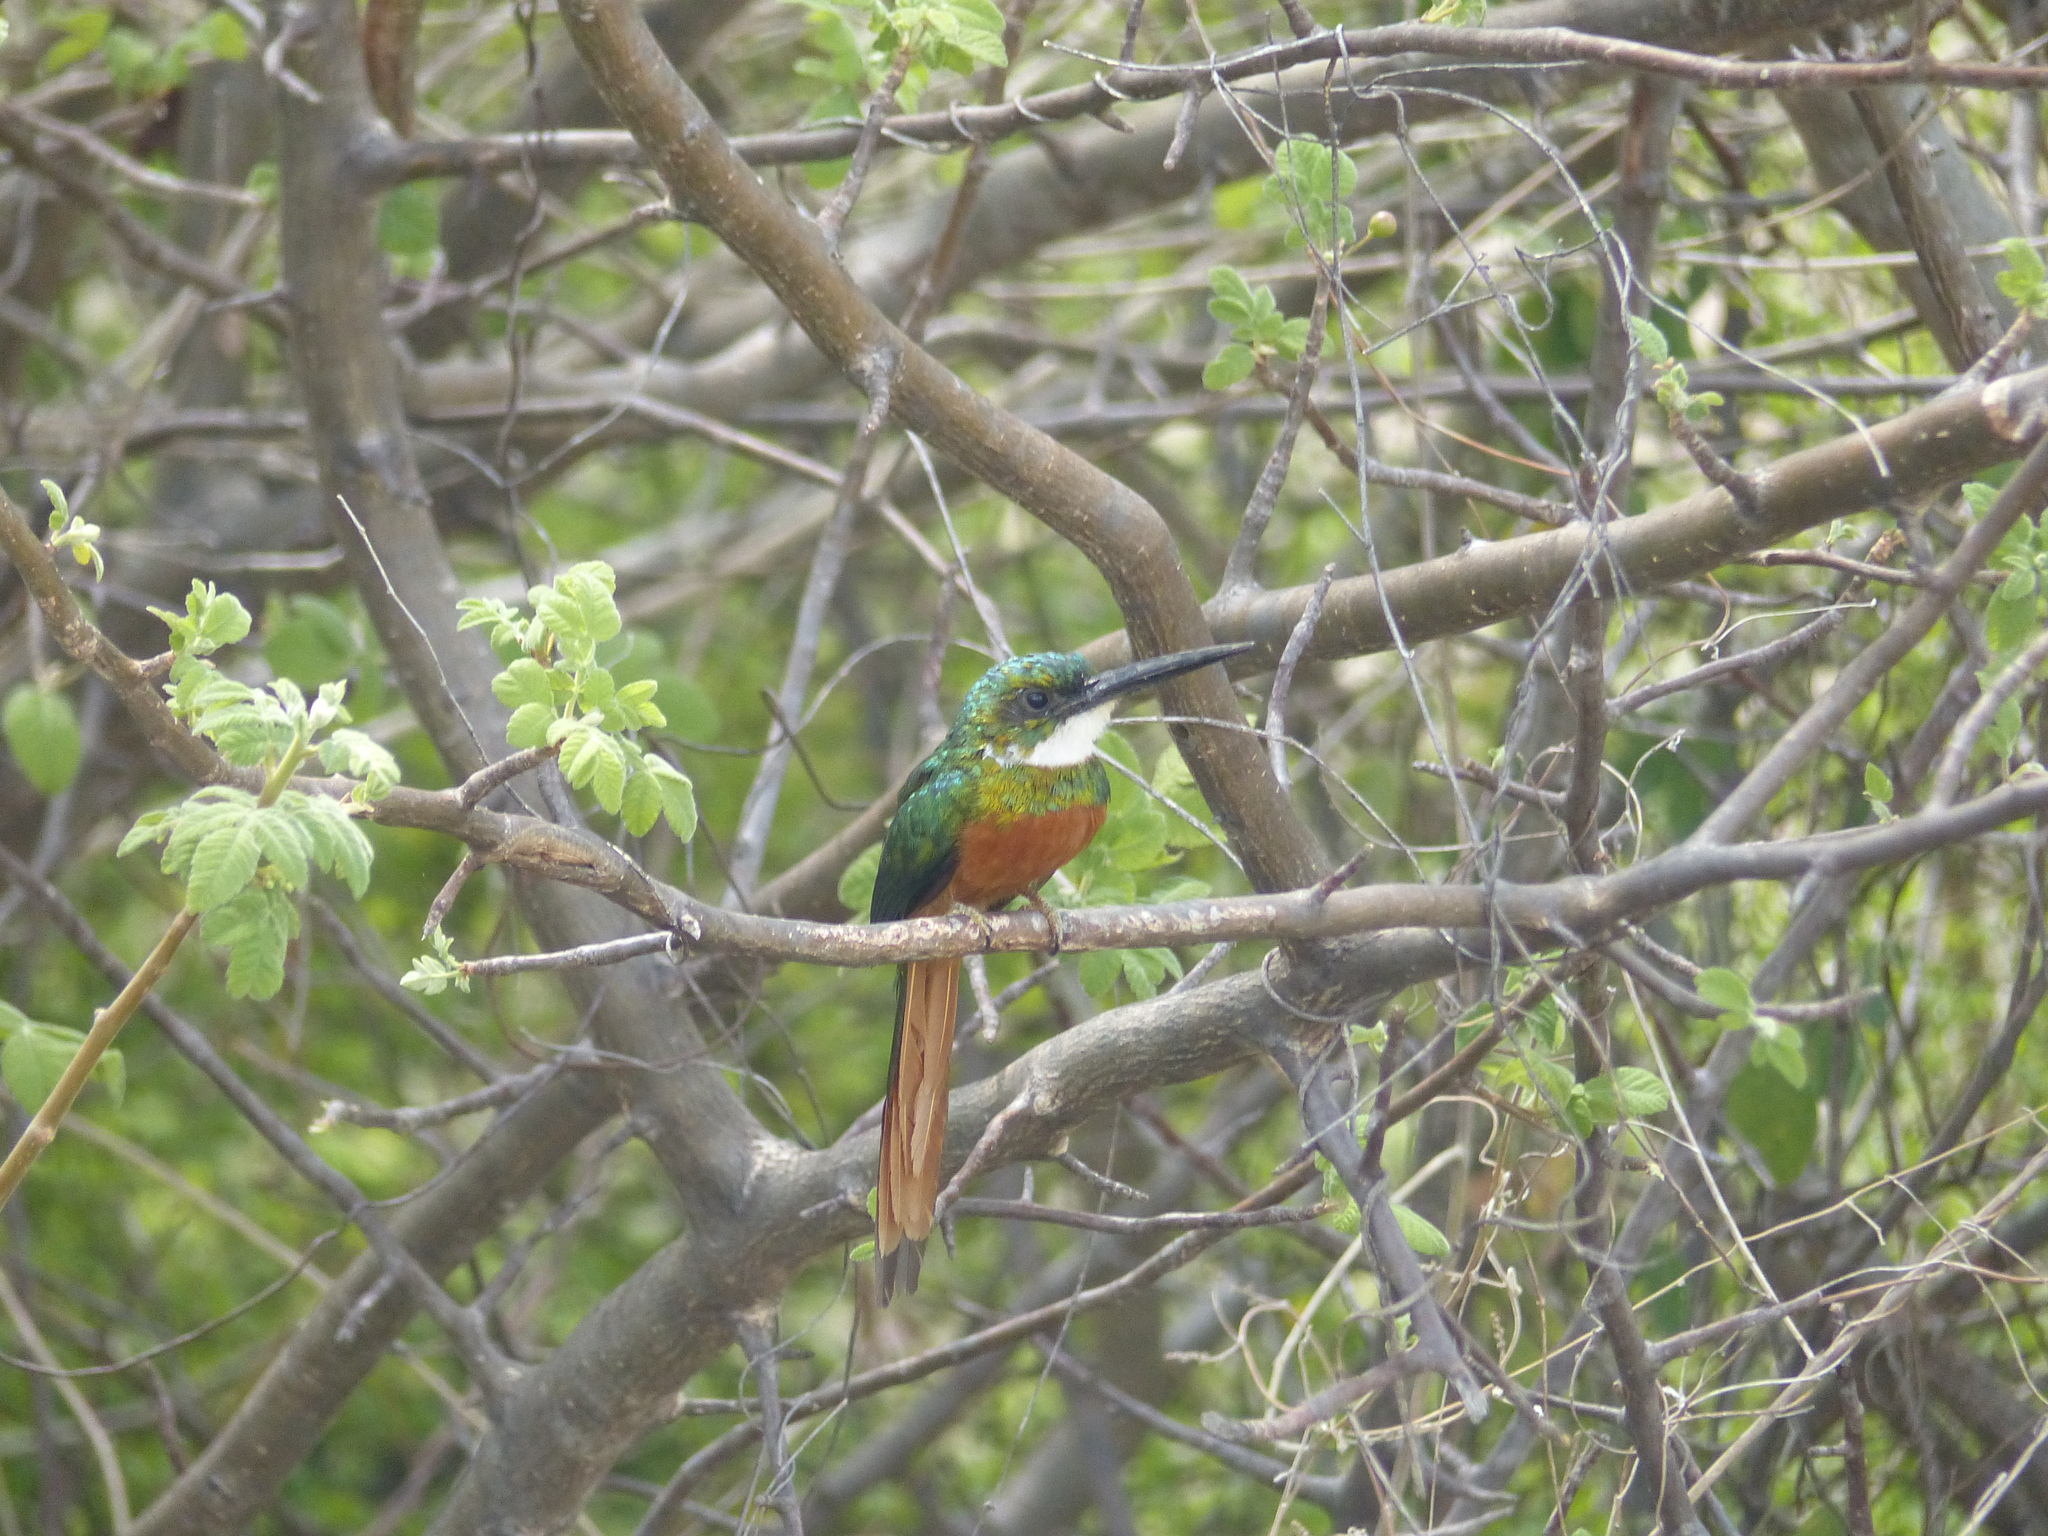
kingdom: Animalia
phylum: Chordata
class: Aves
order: Piciformes
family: Galbulidae
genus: Galbula
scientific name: Galbula ruficauda
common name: Rufous-tailed jacamar
